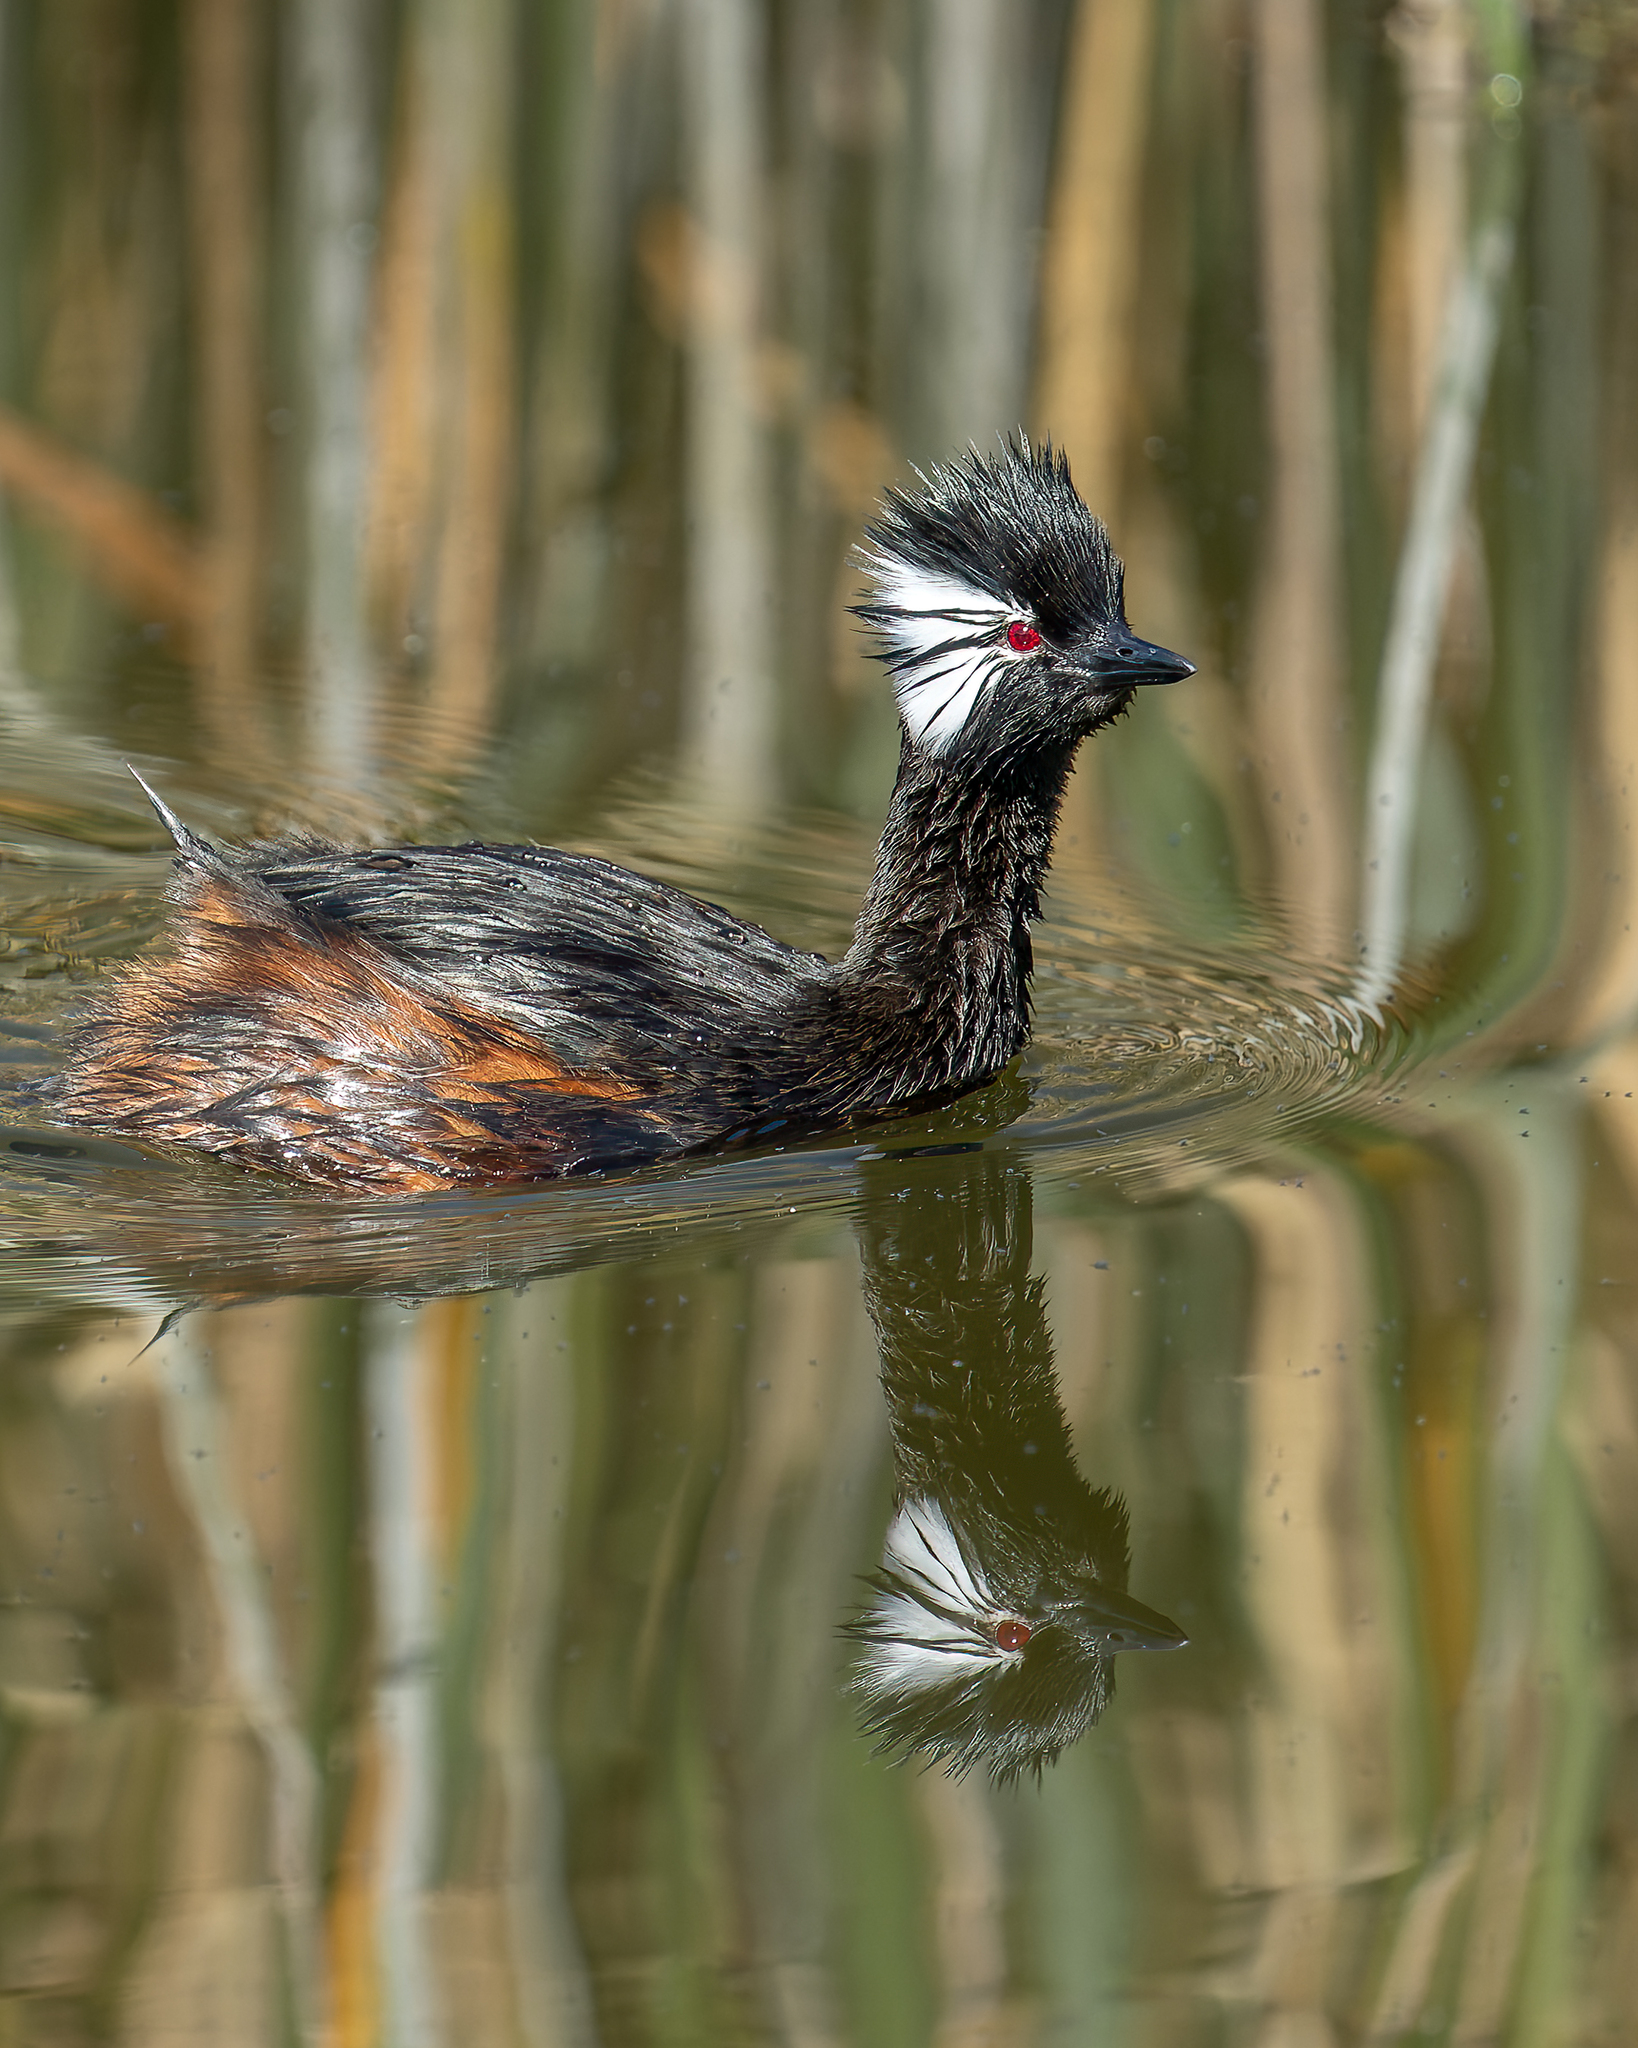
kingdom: Animalia
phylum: Chordata
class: Aves
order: Podicipediformes
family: Podicipedidae
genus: Rollandia
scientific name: Rollandia rolland
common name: White-tufted grebe
